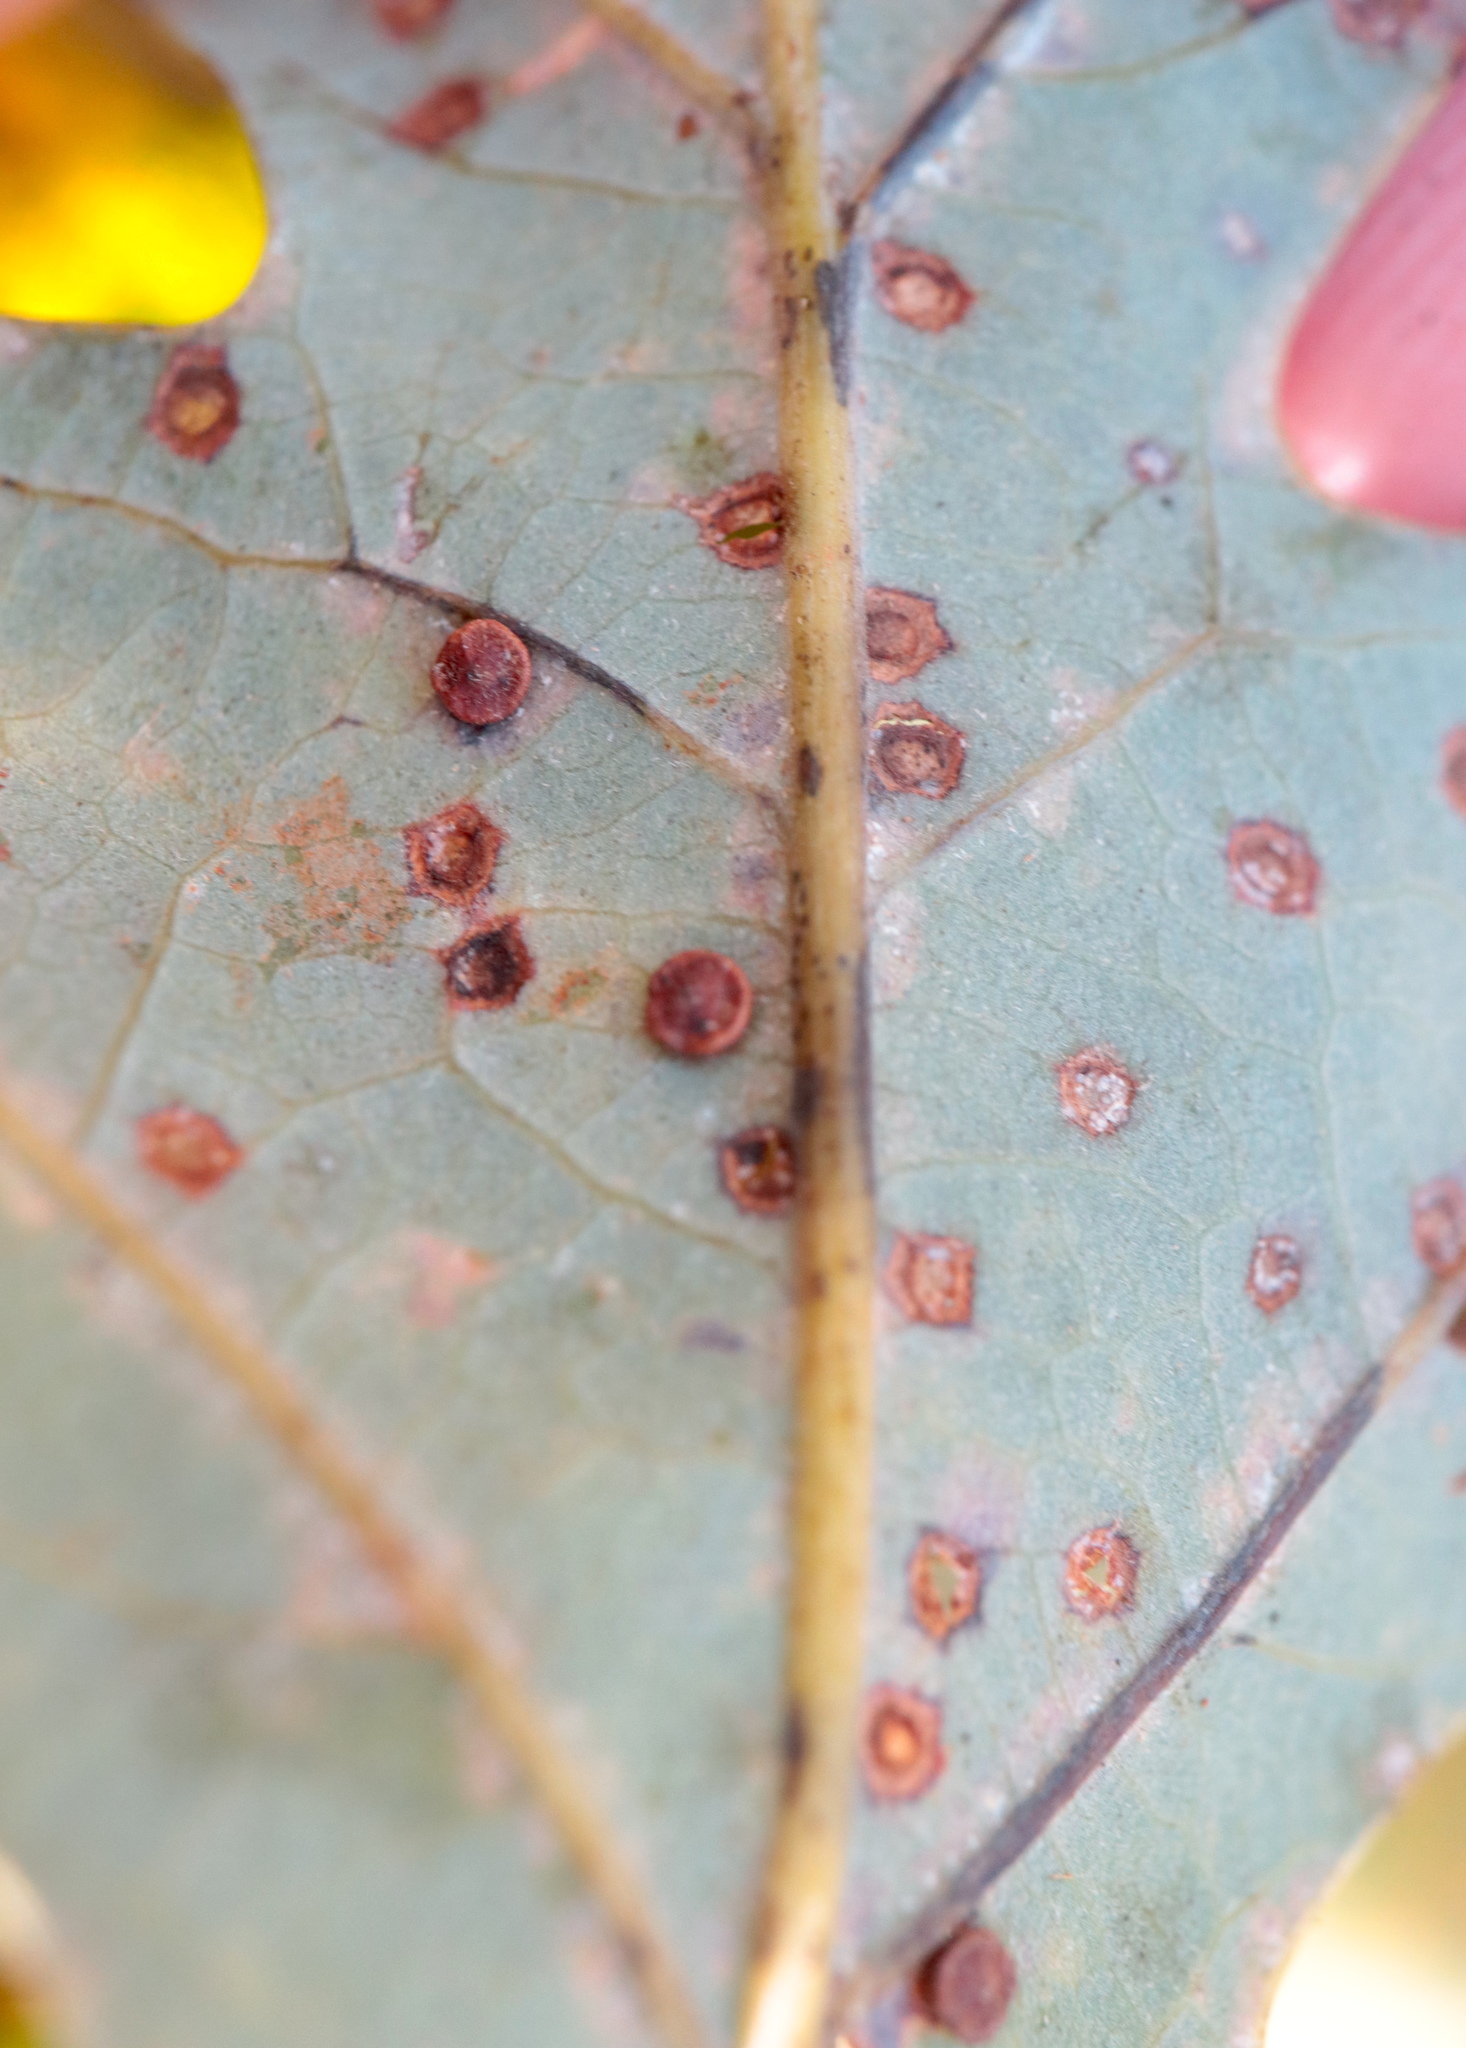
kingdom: Animalia
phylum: Arthropoda
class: Insecta
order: Hymenoptera
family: Cynipidae
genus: Neuroterus
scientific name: Neuroterus
